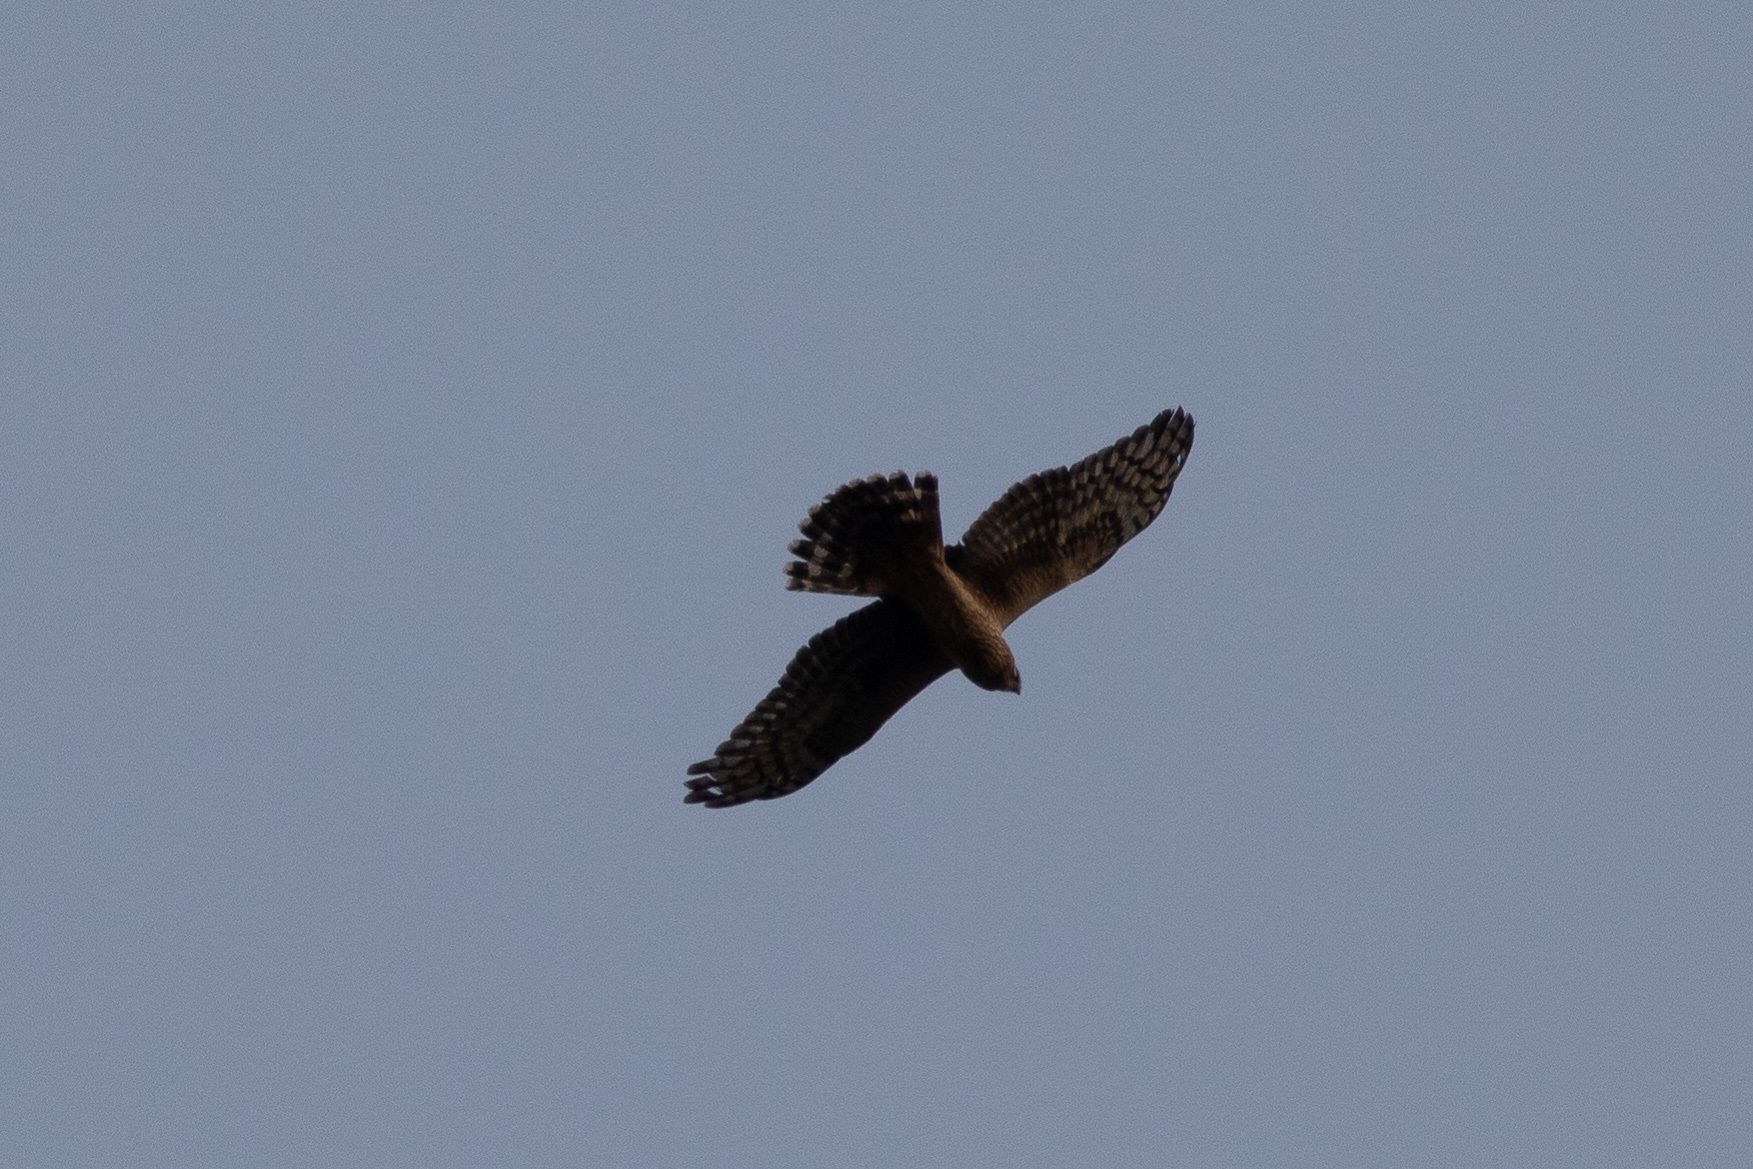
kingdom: Animalia
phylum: Chordata
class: Aves
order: Accipitriformes
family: Accipitridae
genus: Circus
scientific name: Circus cyaneus
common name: Hen harrier
